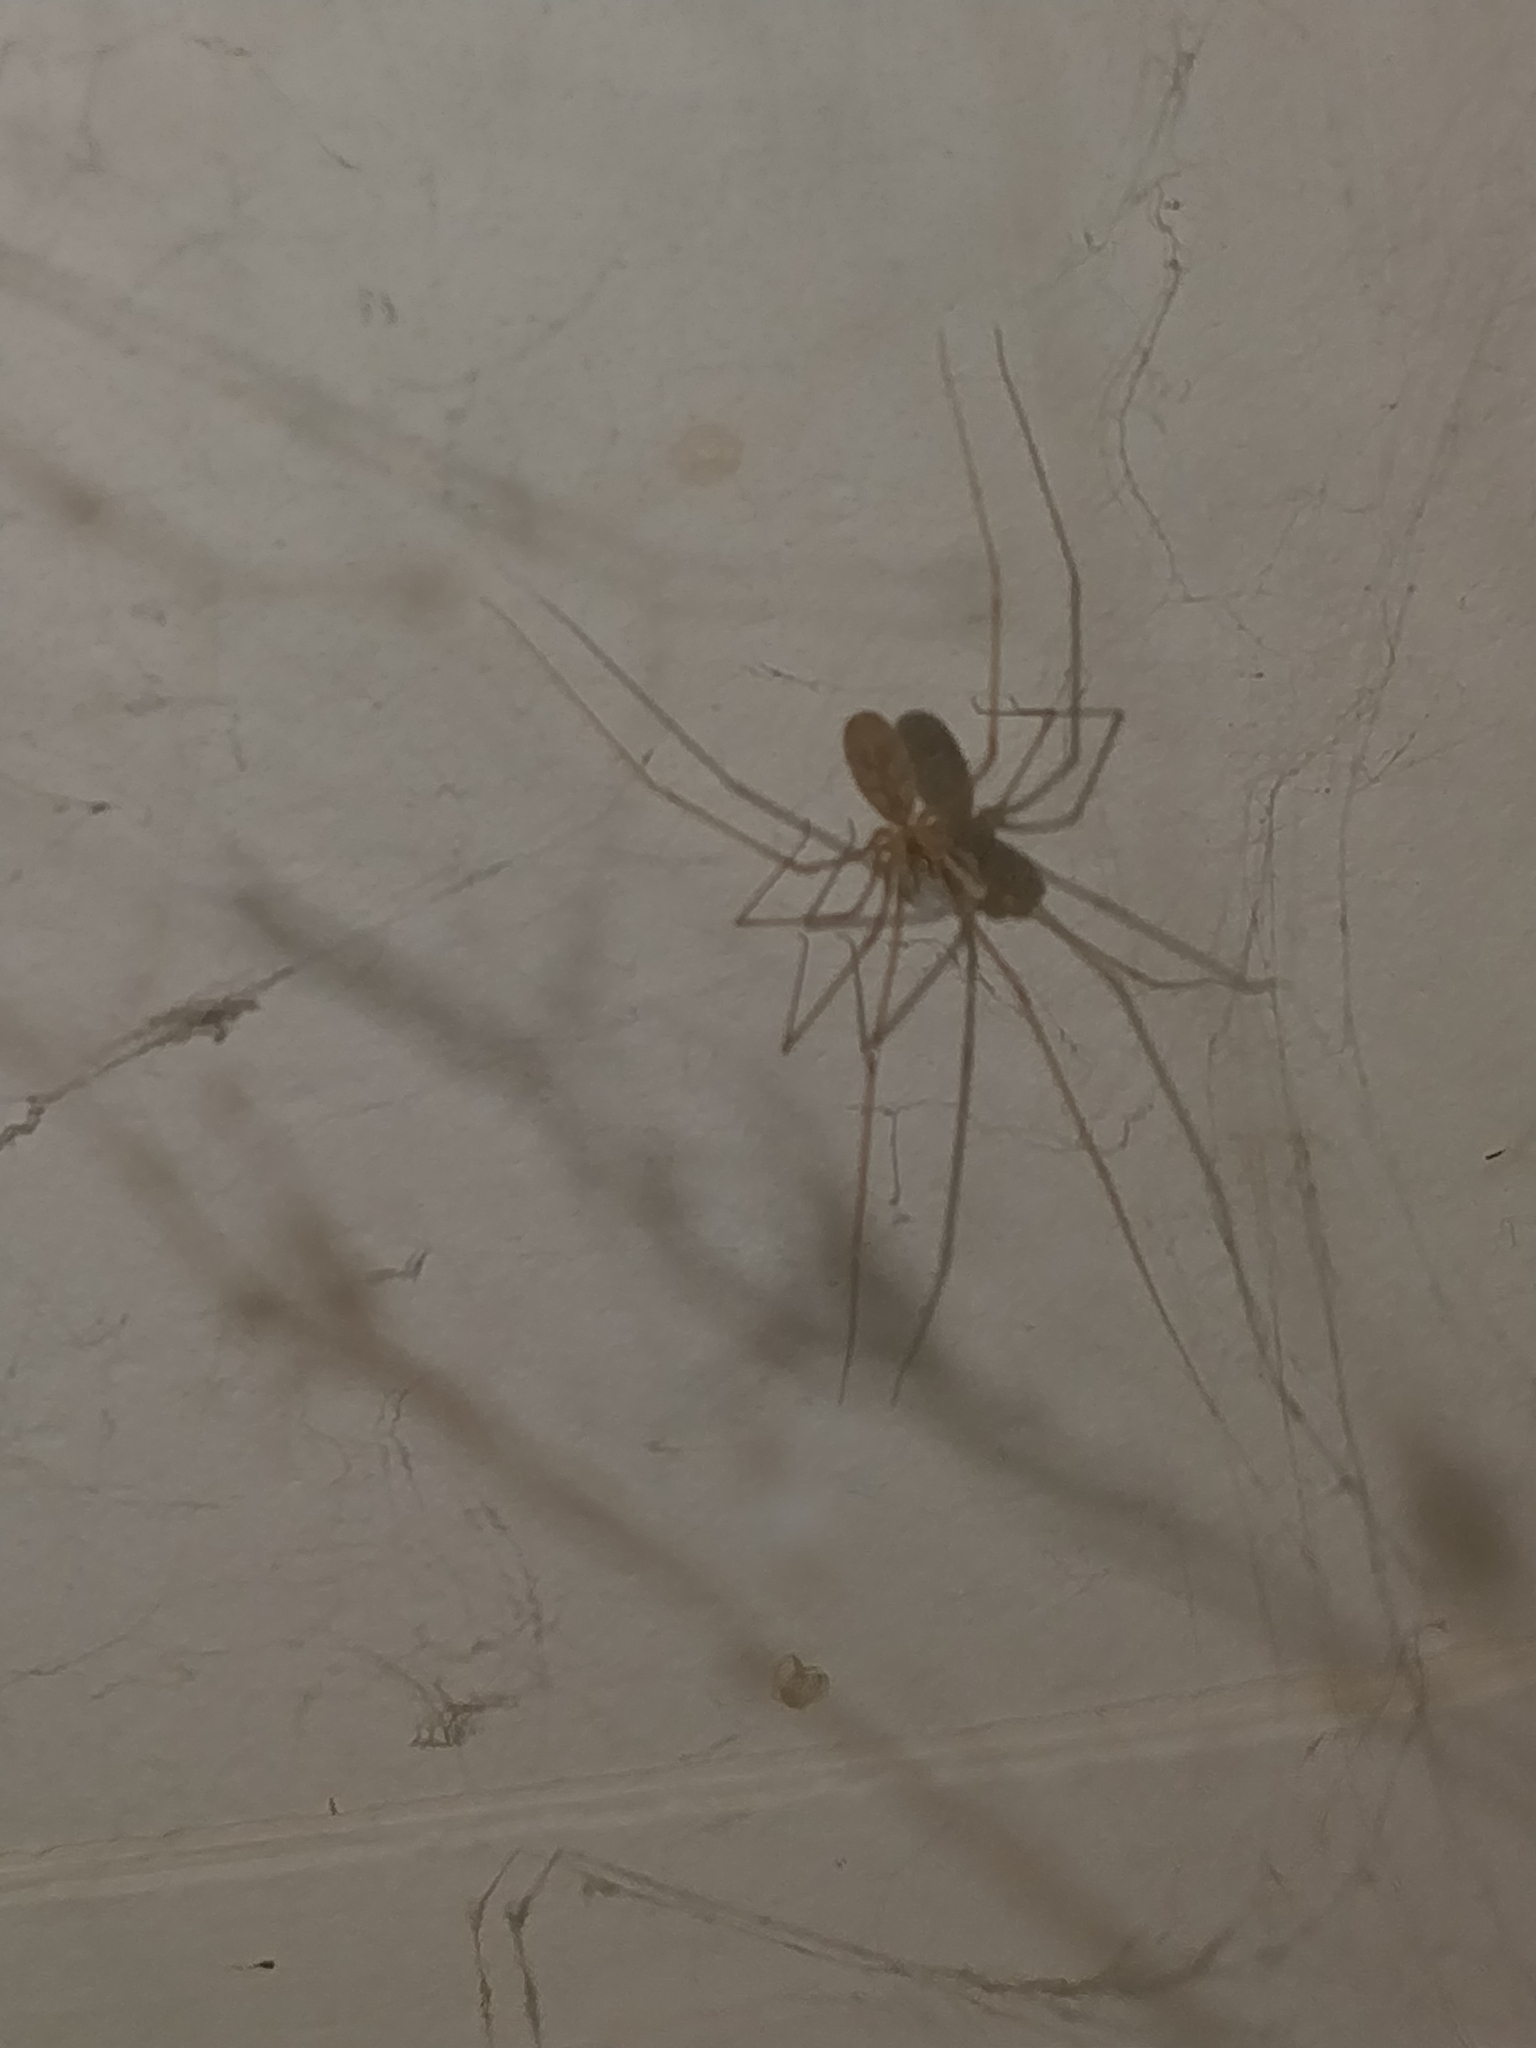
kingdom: Animalia
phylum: Arthropoda
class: Arachnida
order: Araneae
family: Pholcidae
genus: Pholcus
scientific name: Pholcus phalangioides
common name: Longbodied cellar spider
